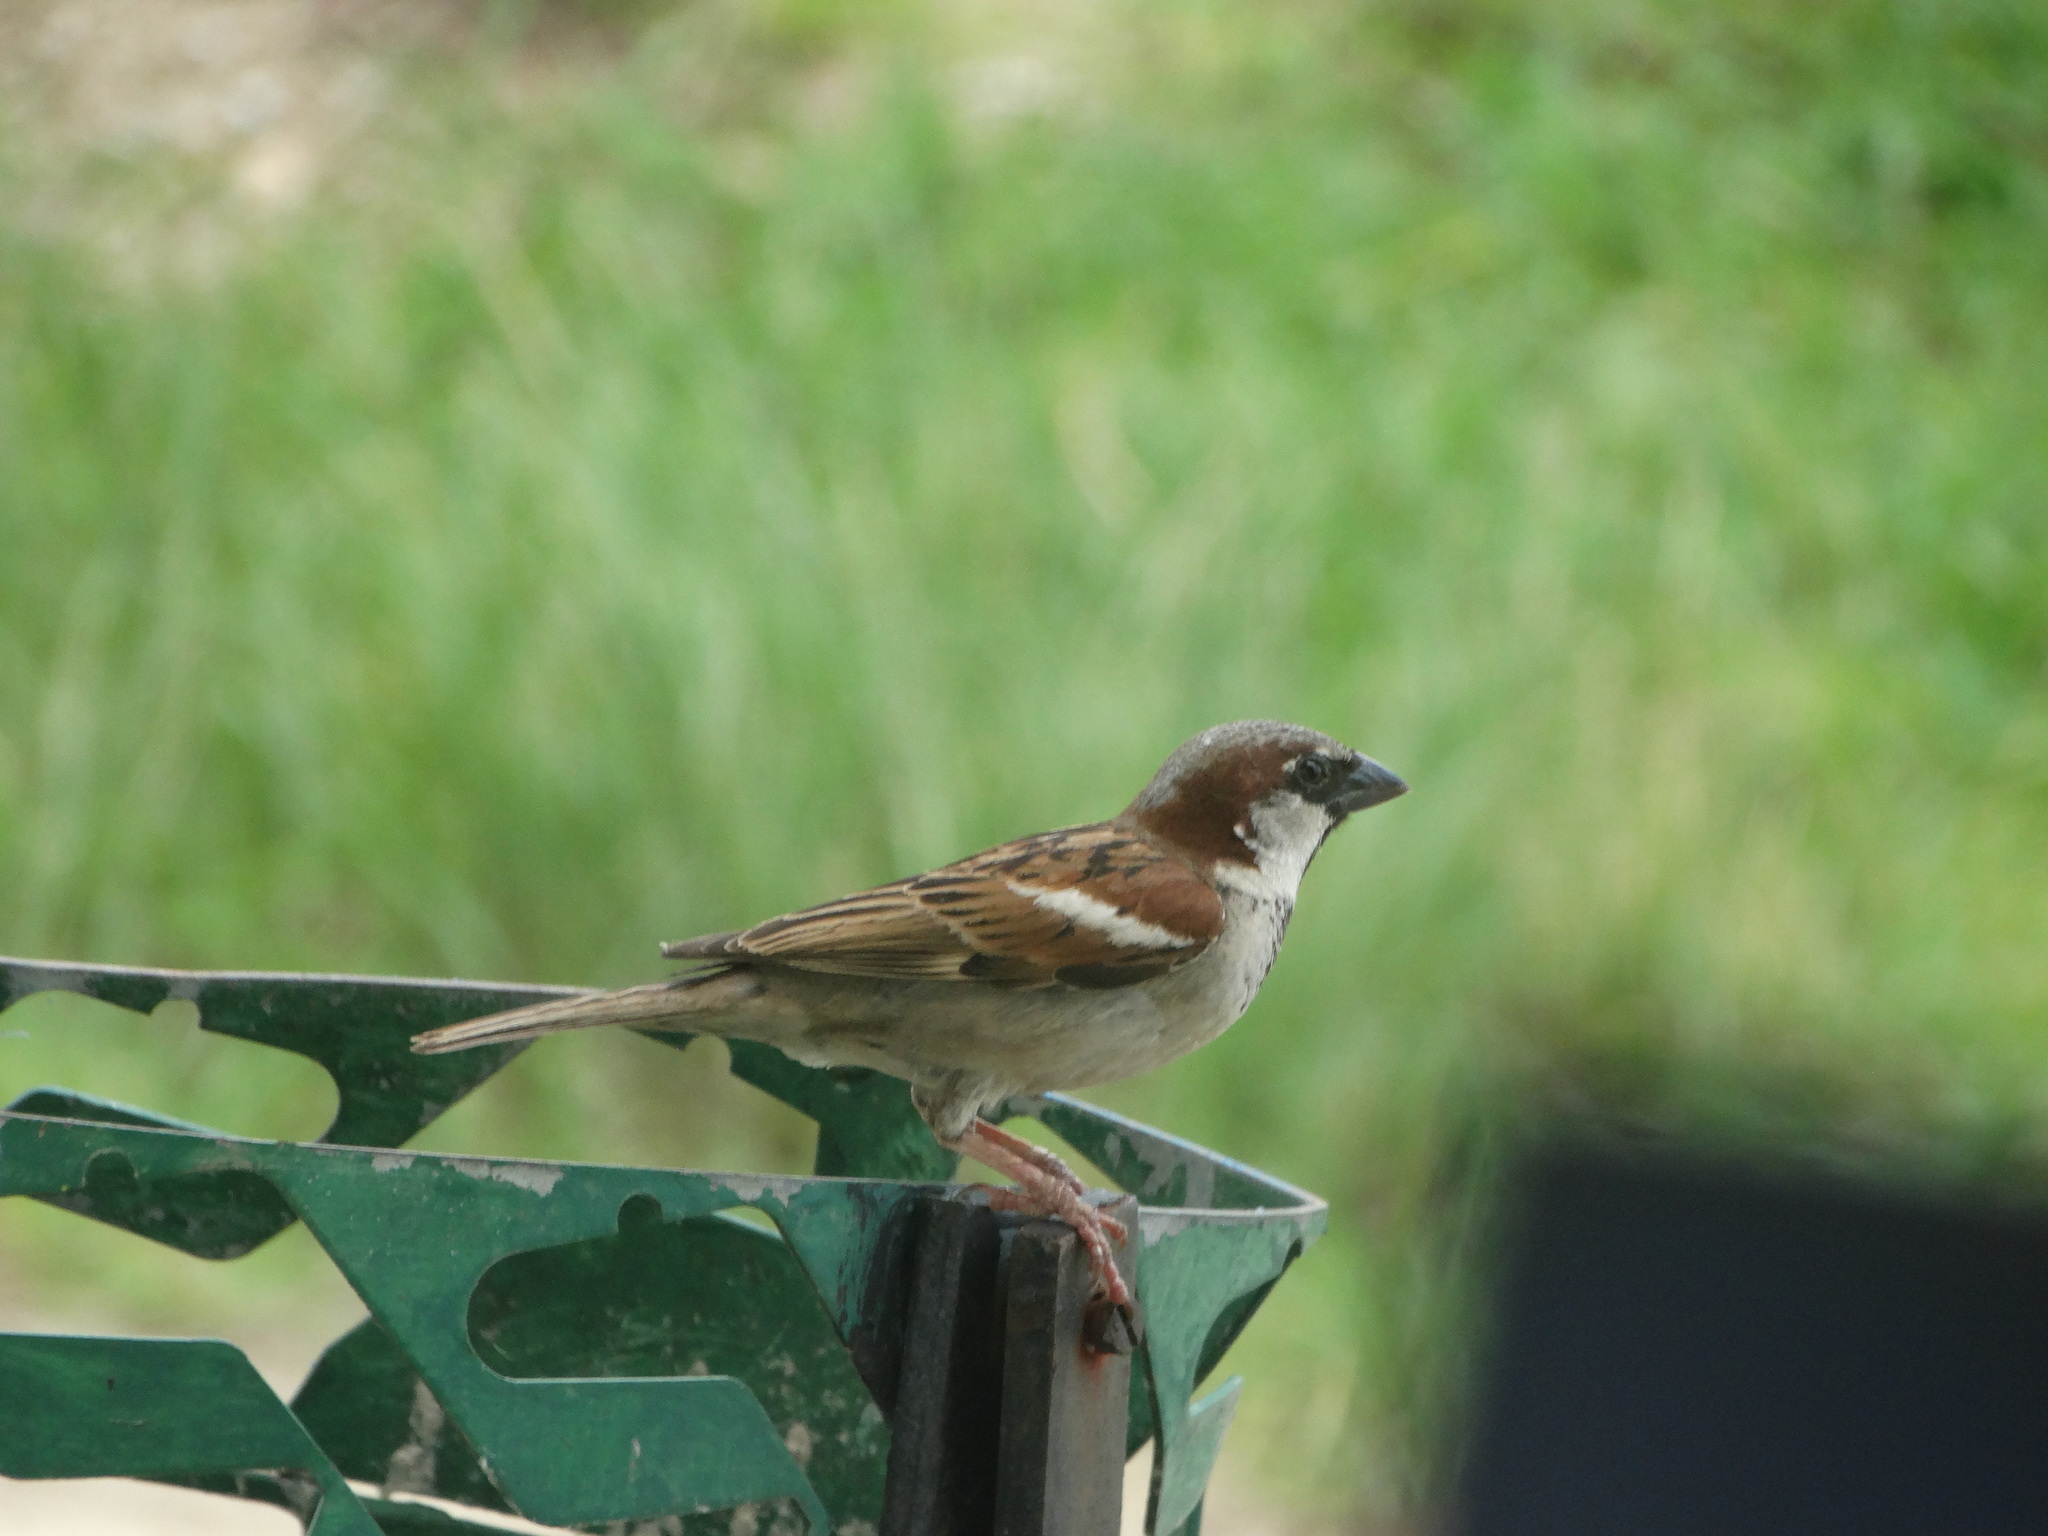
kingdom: Animalia
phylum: Chordata
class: Aves
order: Passeriformes
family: Passeridae
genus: Passer
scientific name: Passer domesticus
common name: House sparrow
